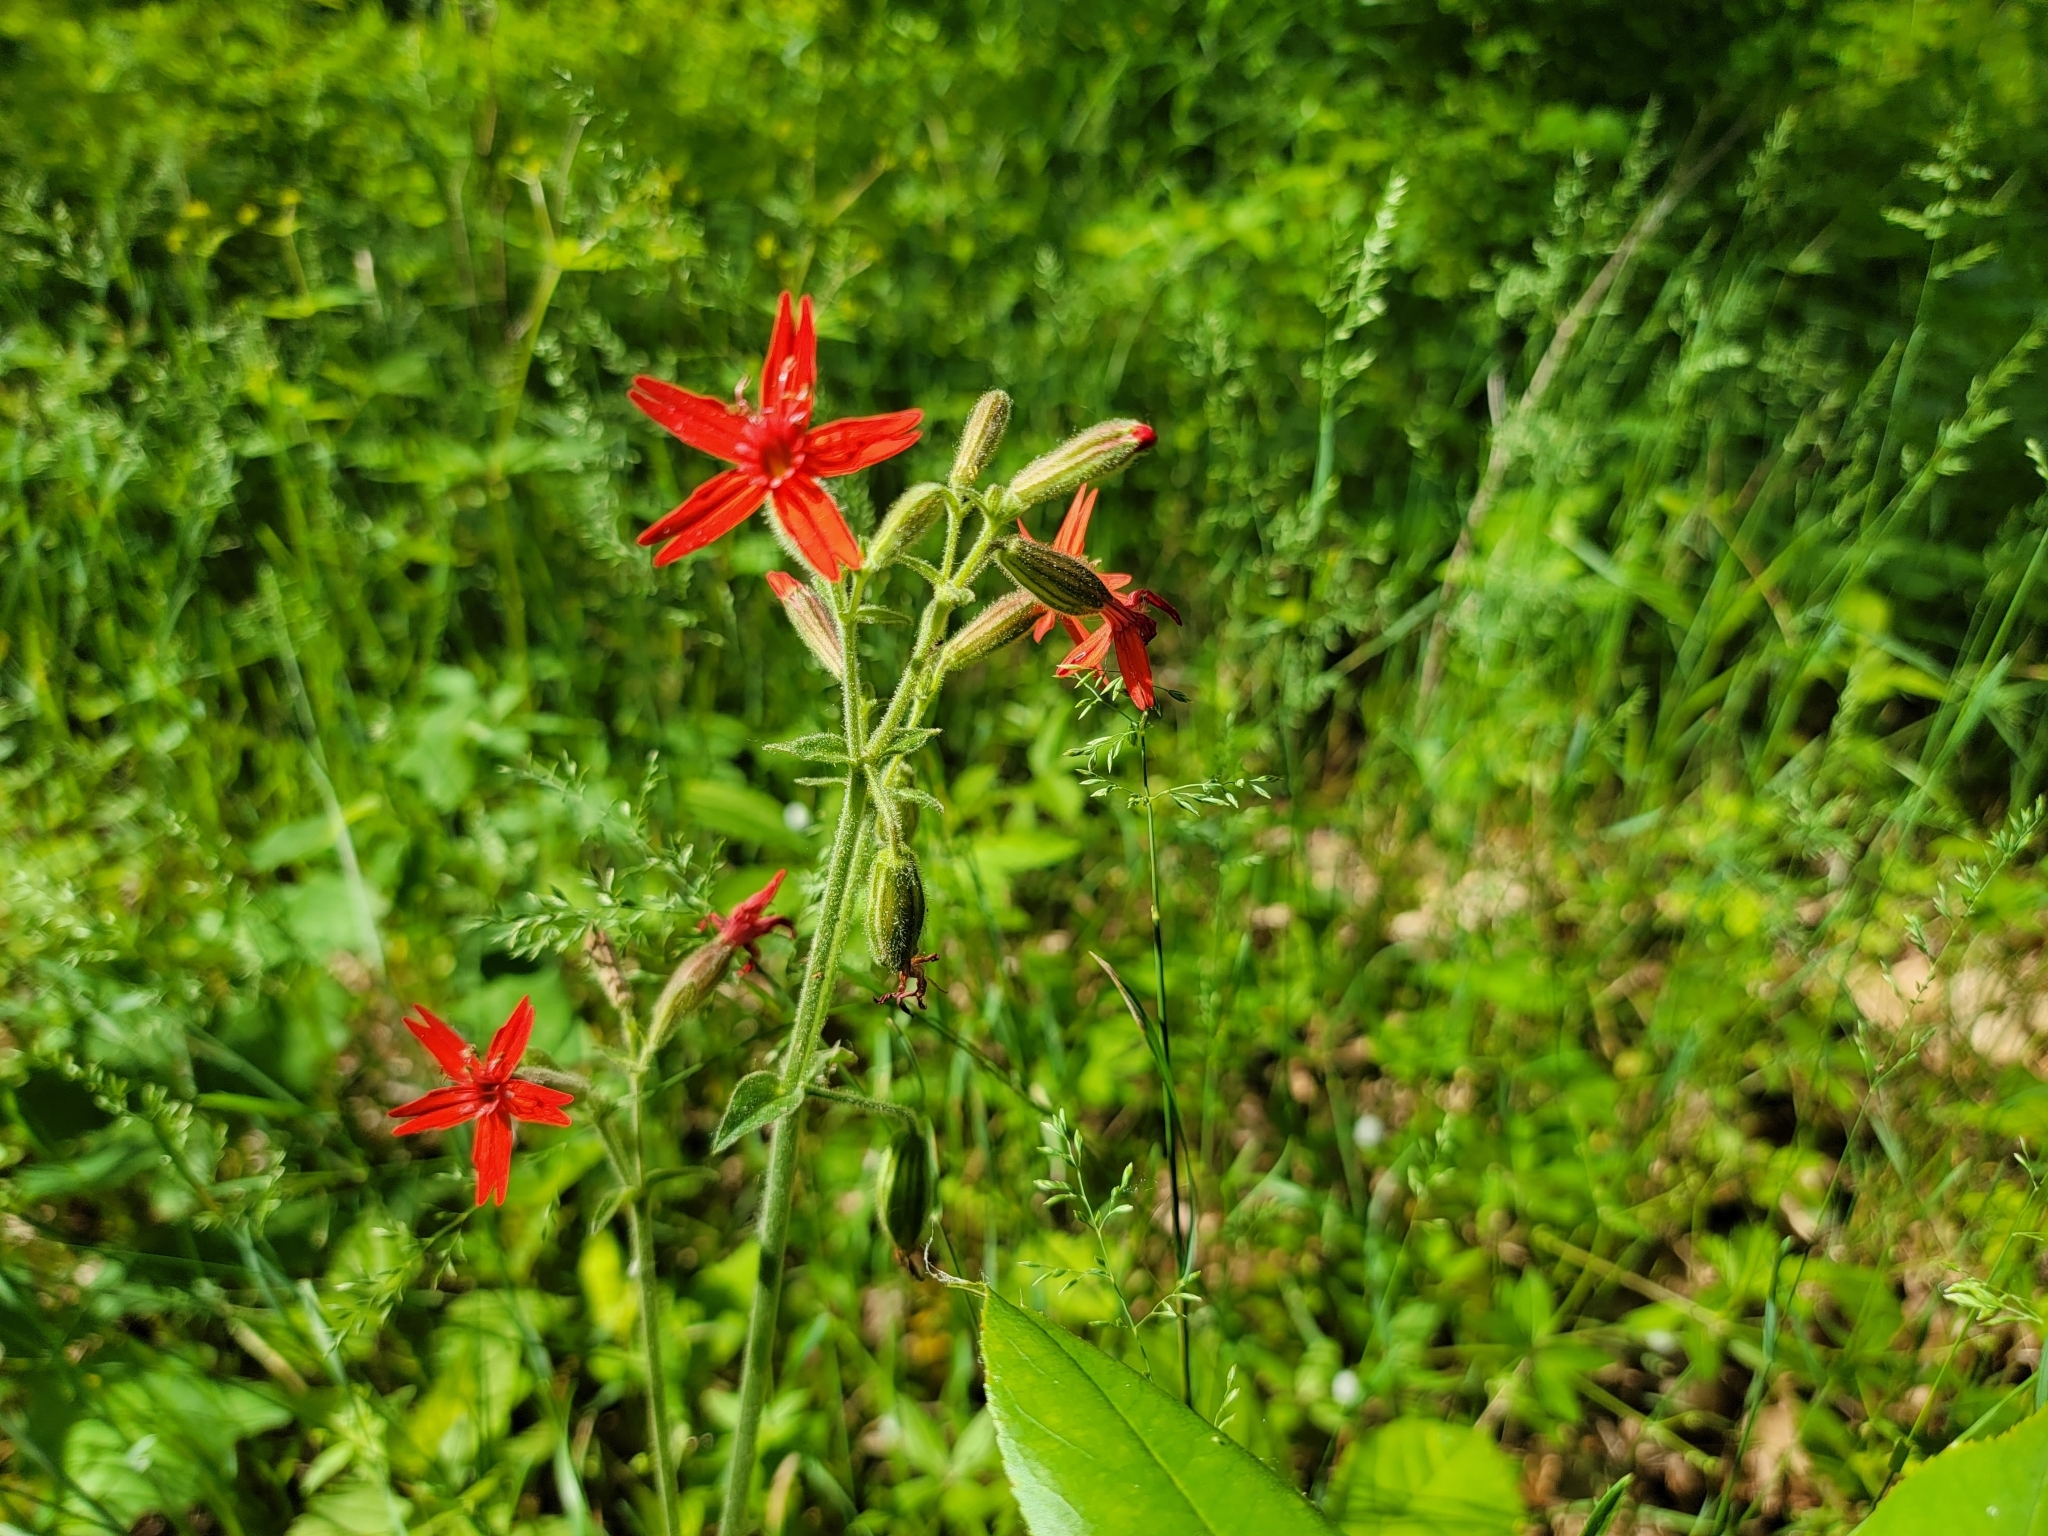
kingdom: Plantae
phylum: Tracheophyta
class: Magnoliopsida
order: Caryophyllales
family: Caryophyllaceae
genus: Silene
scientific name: Silene virginica
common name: Fire-pink
